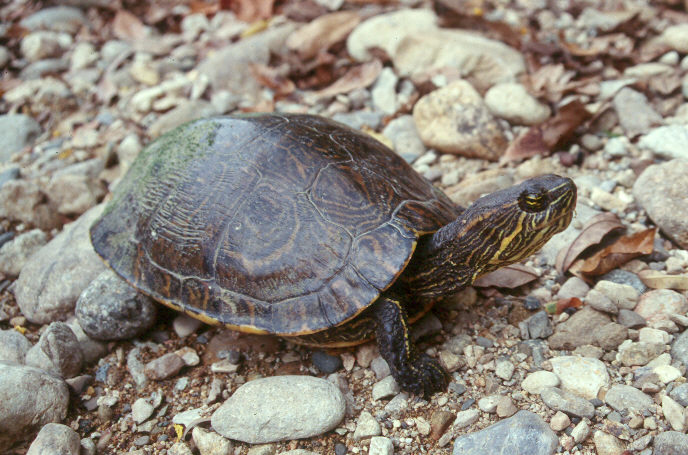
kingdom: Animalia
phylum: Chordata
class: Testudines
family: Emydidae
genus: Trachemys
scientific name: Trachemys venusta
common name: Mesoamerican slider
